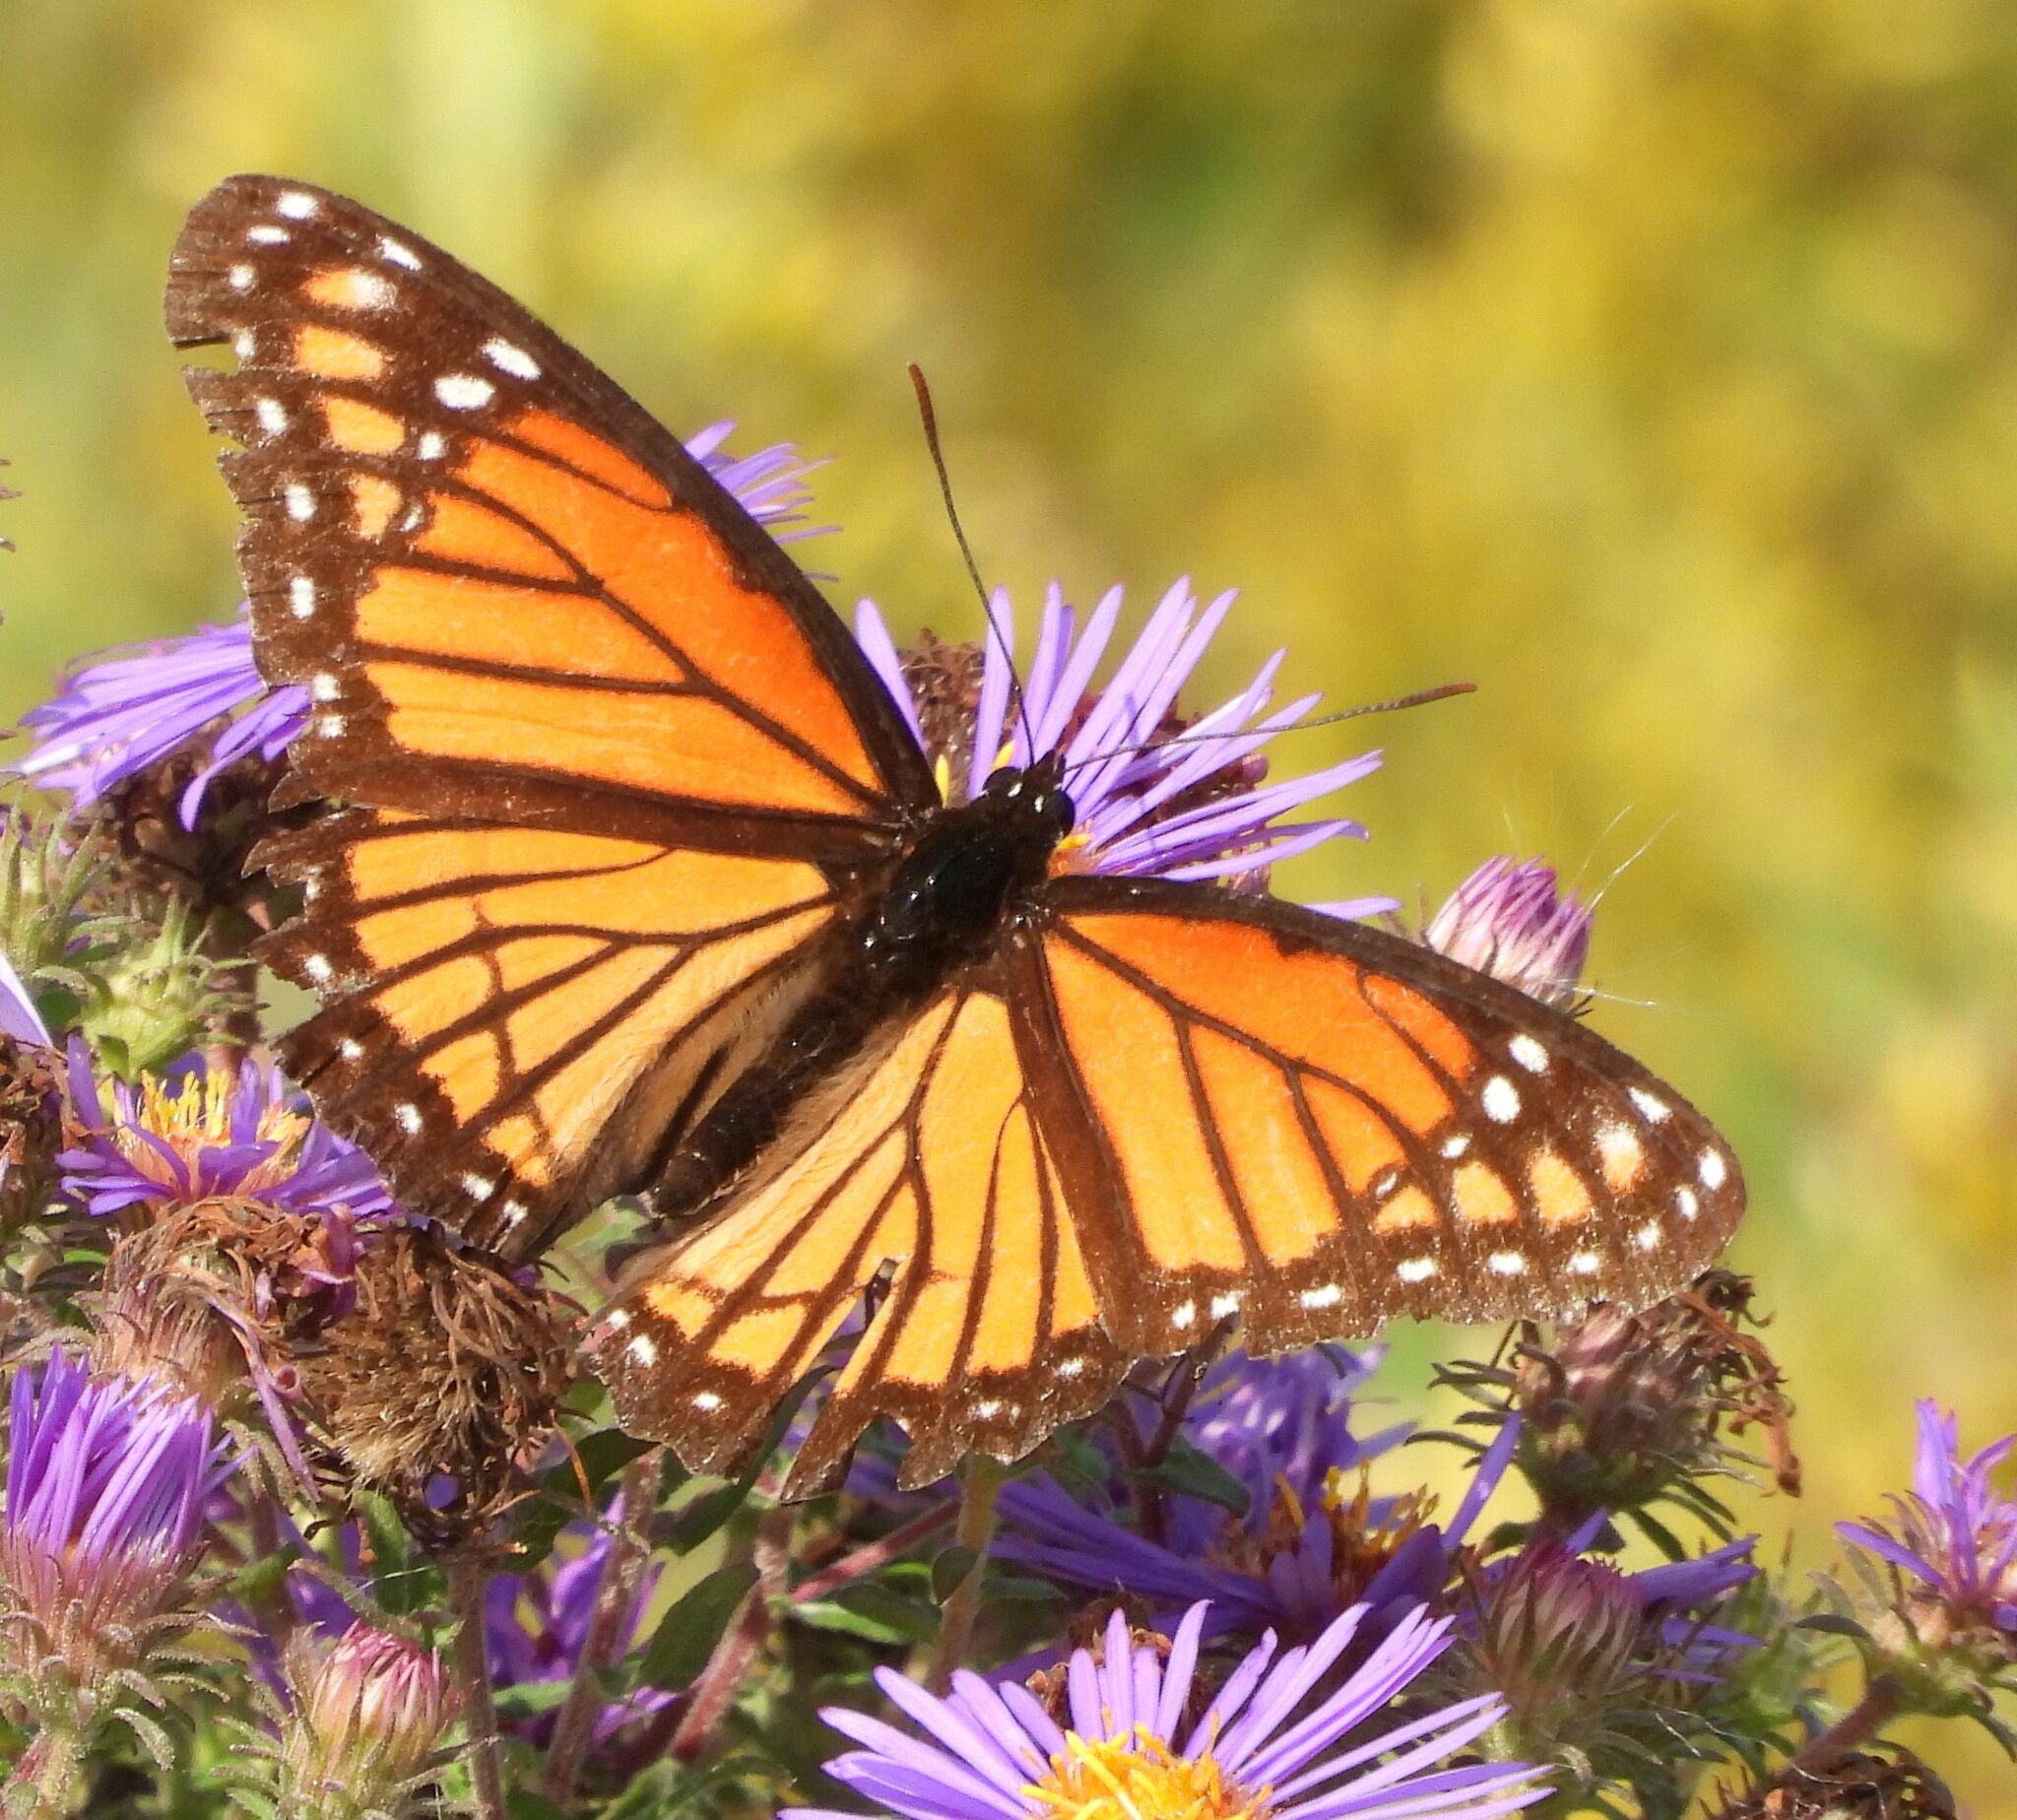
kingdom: Animalia
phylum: Arthropoda
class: Insecta
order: Lepidoptera
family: Nymphalidae
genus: Limenitis
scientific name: Limenitis archippus
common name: Viceroy
